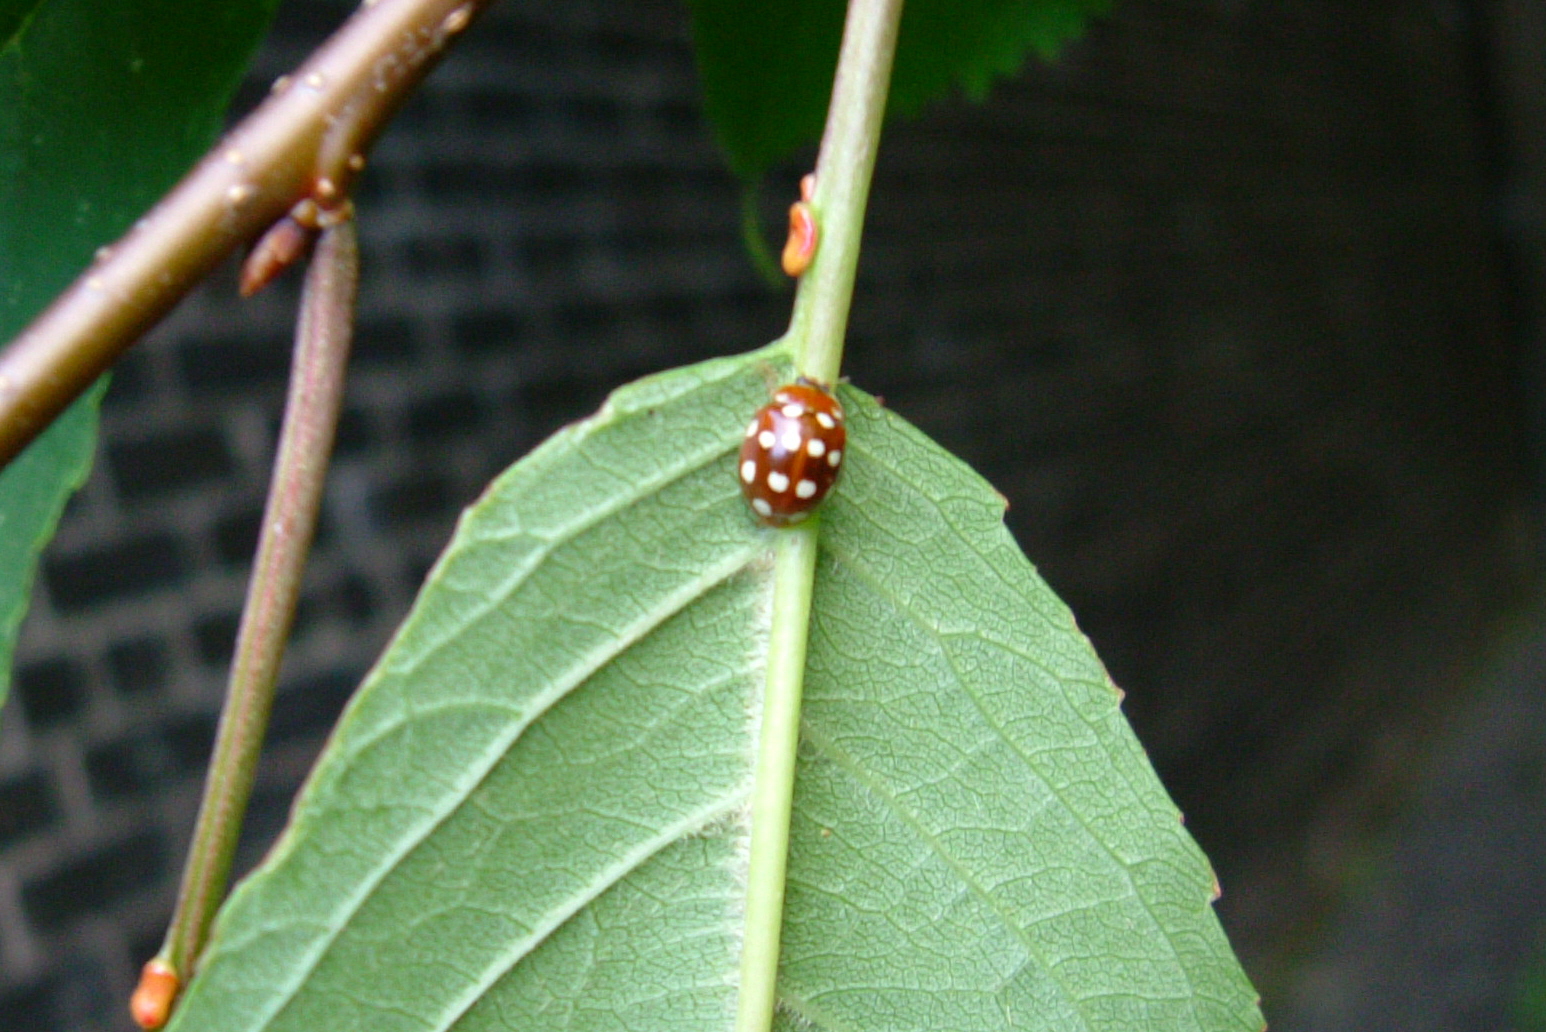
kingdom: Animalia
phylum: Arthropoda
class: Insecta
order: Coleoptera
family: Coccinellidae
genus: Calvia
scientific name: Calvia quatuordecimguttata
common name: Cream-spot ladybird
